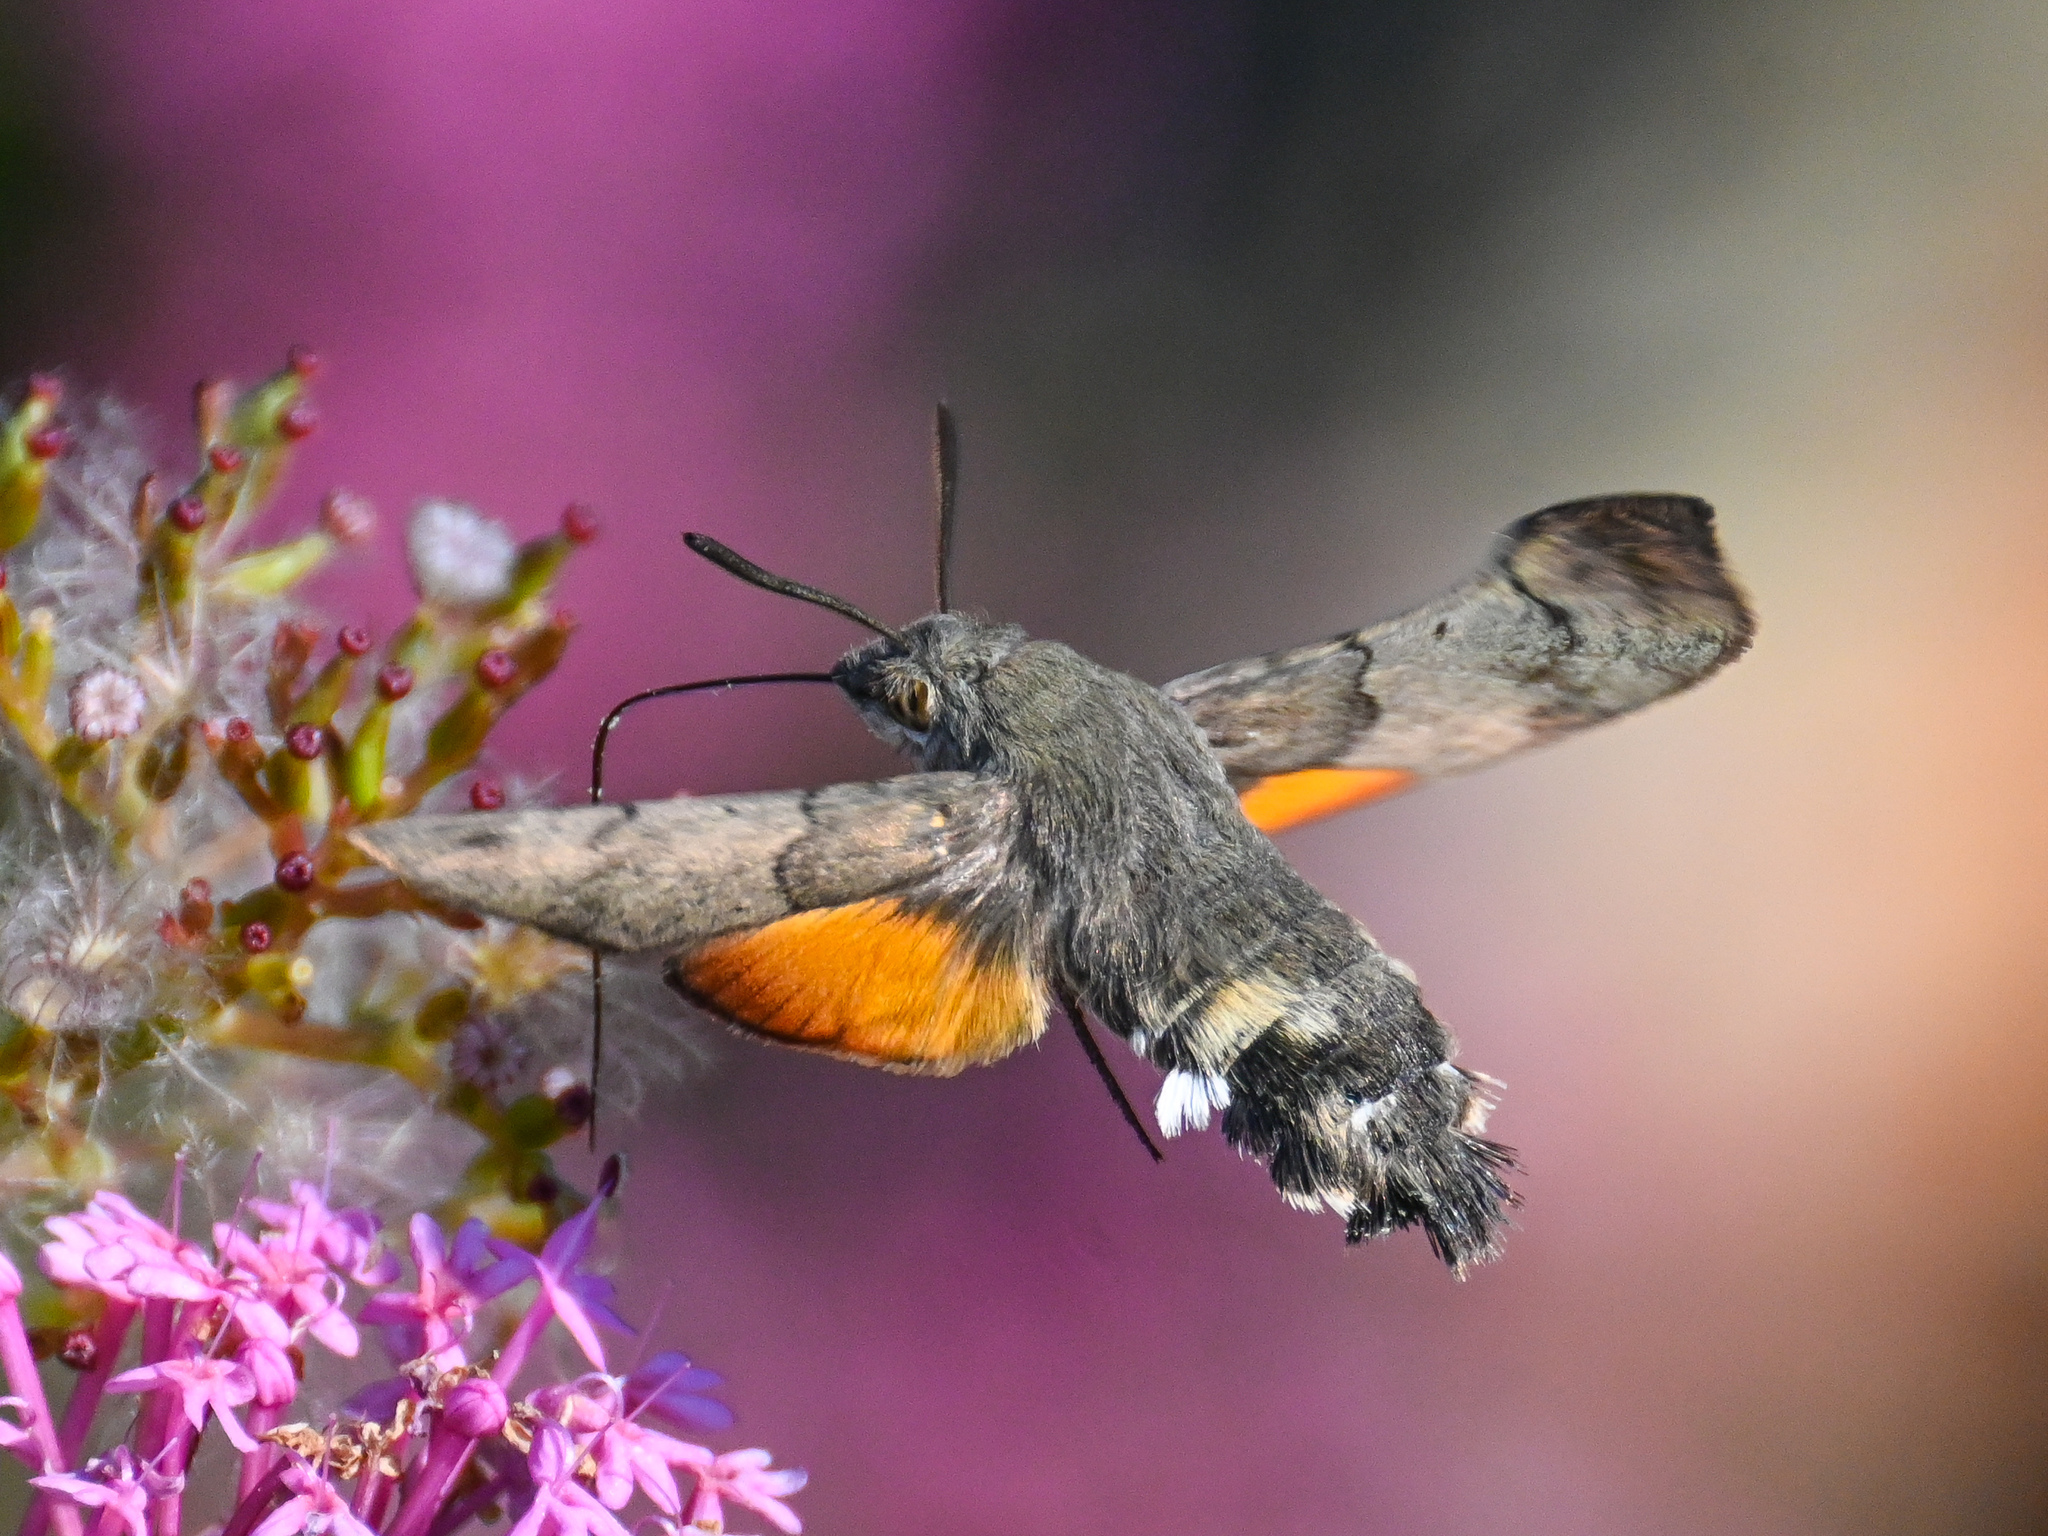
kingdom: Animalia
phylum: Arthropoda
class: Insecta
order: Lepidoptera
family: Sphingidae
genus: Macroglossum
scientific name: Macroglossum stellatarum
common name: Humming-bird hawk-moth
